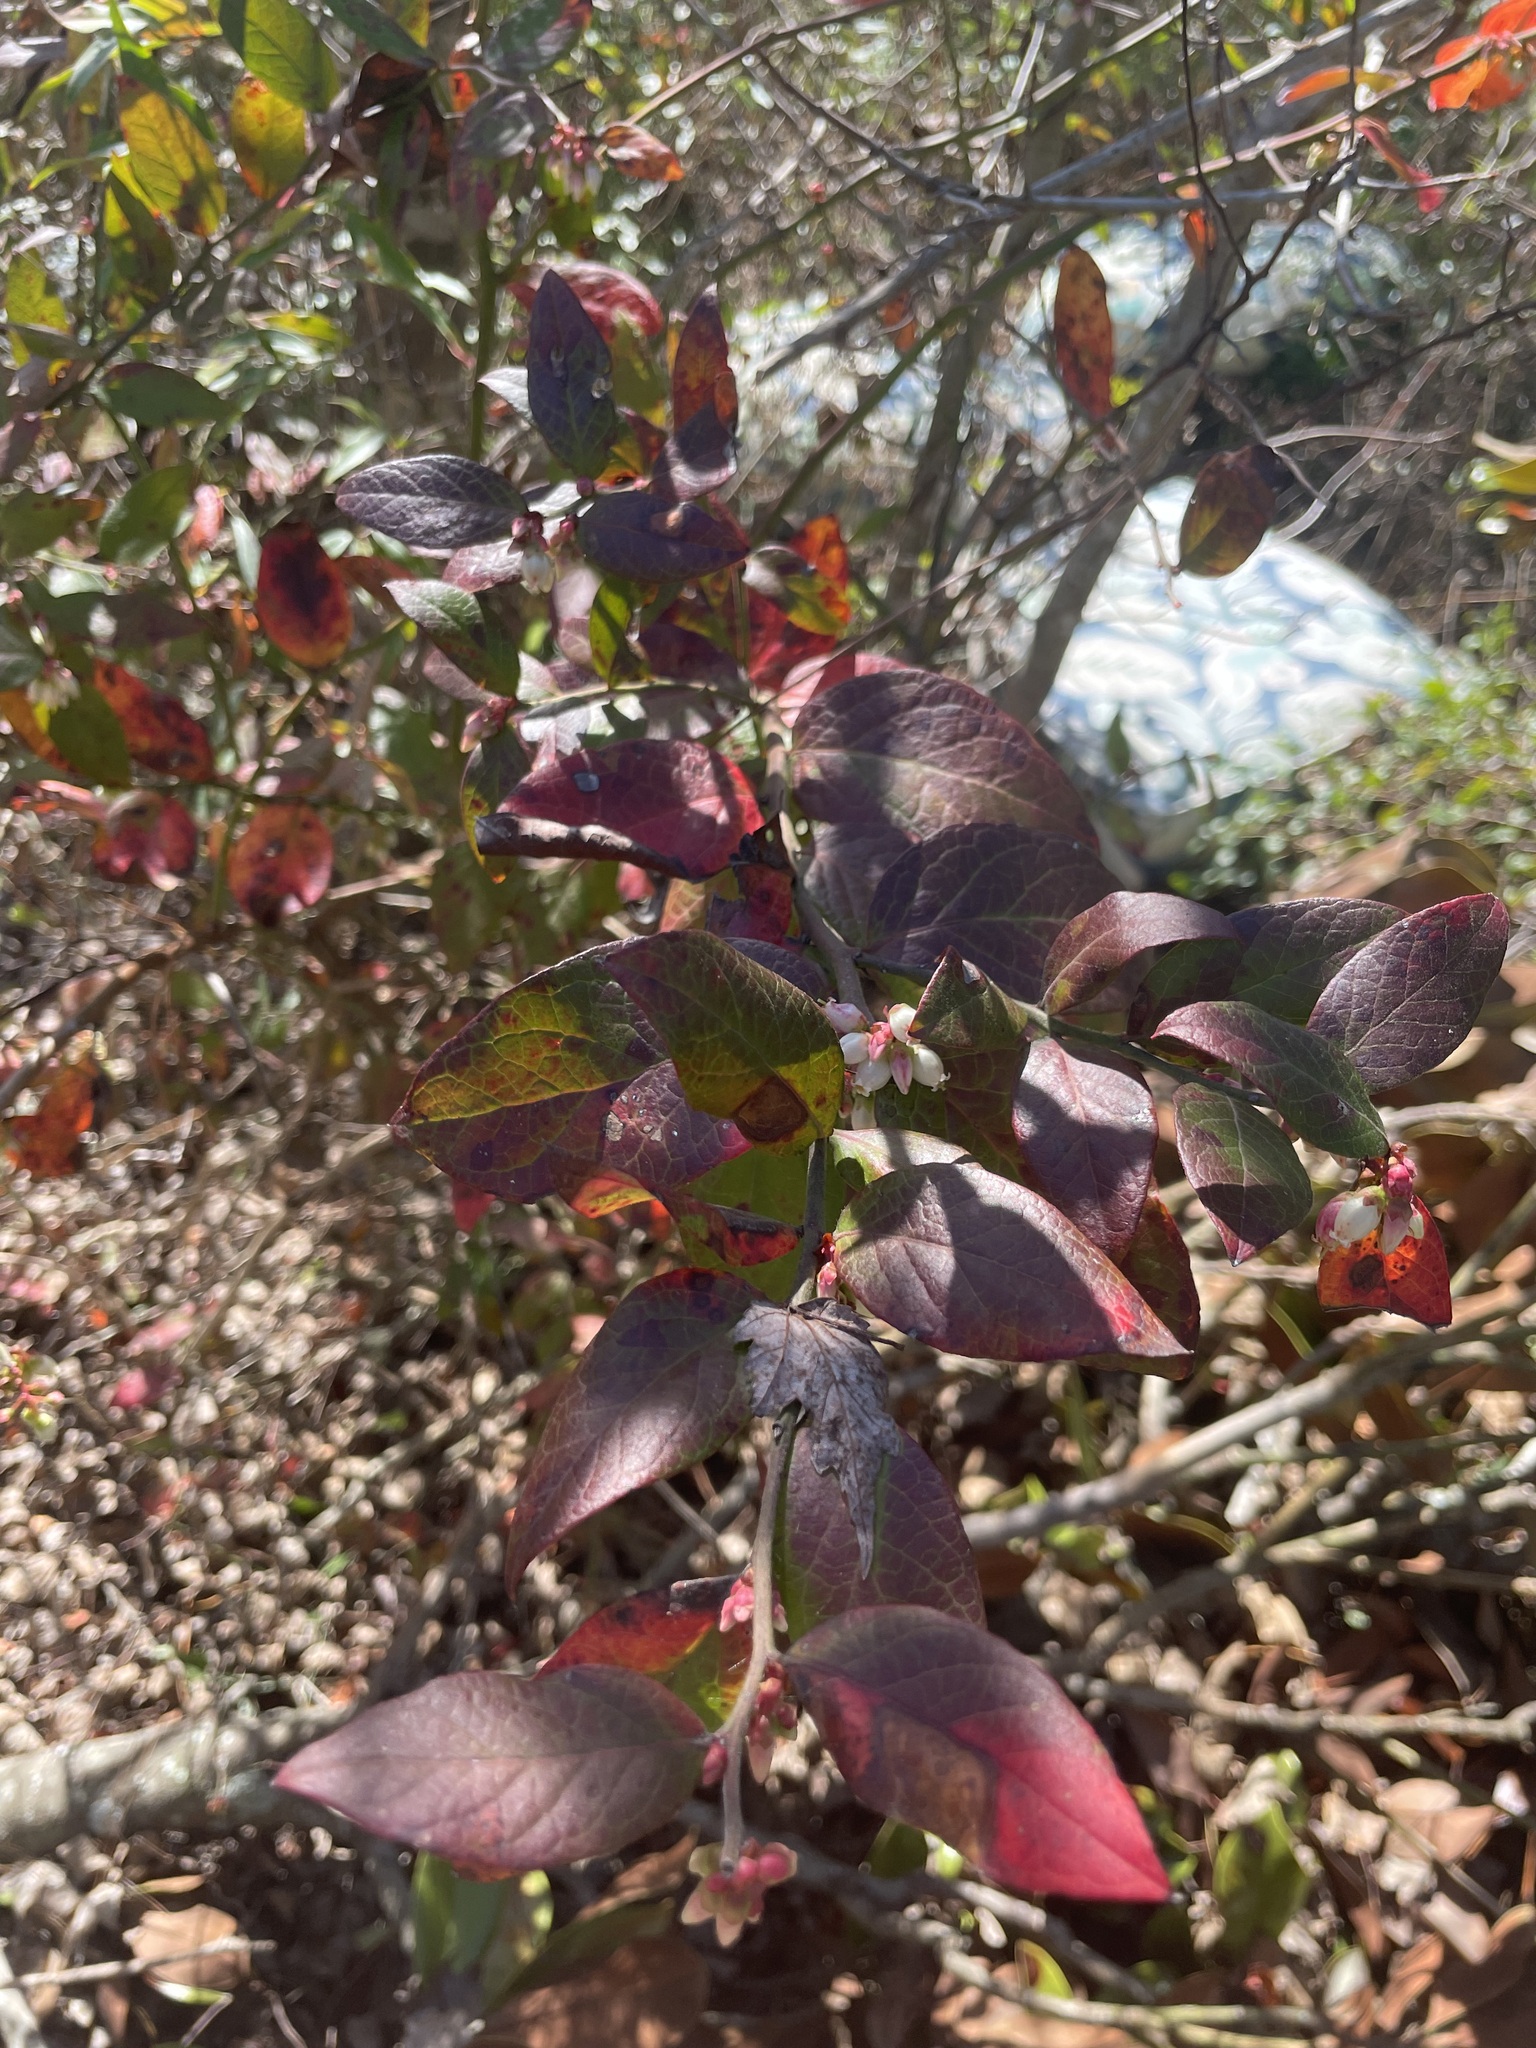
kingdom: Plantae
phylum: Tracheophyta
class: Magnoliopsida
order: Ericales
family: Ericaceae
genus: Vaccinium
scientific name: Vaccinium corymbosum
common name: Blueberry
